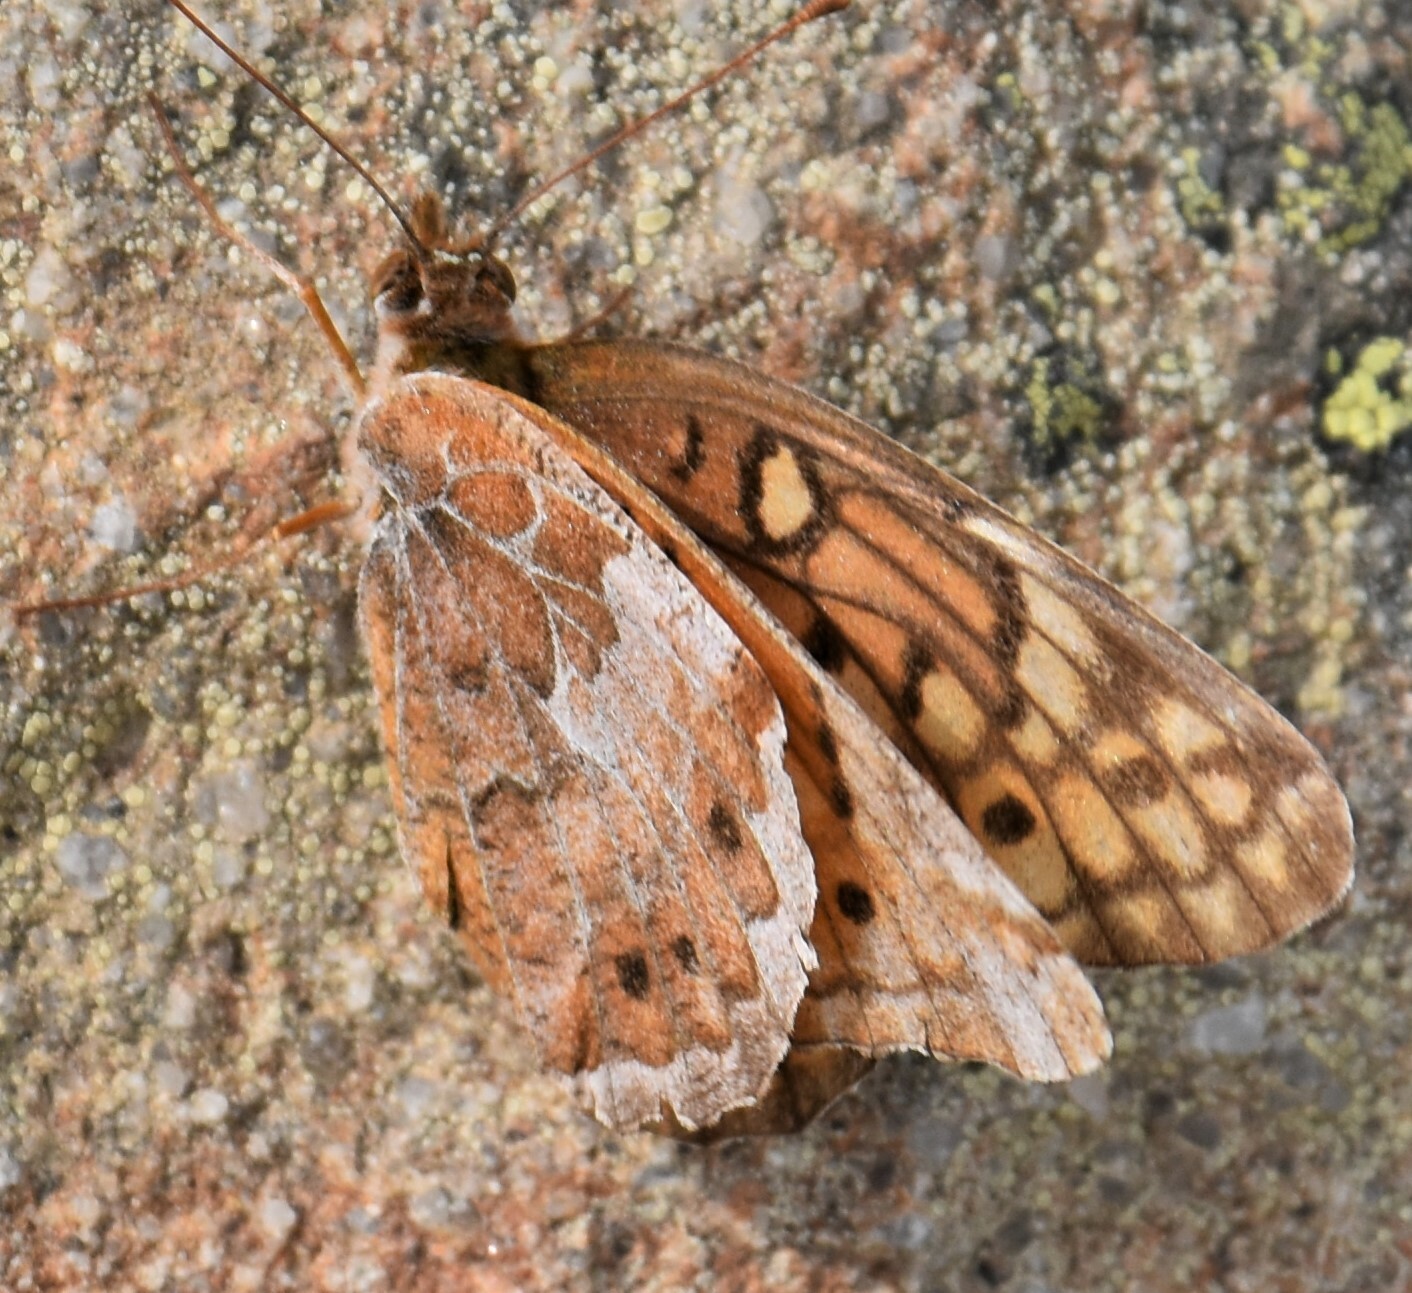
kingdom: Animalia
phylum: Arthropoda
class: Insecta
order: Lepidoptera
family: Nymphalidae
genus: Euptoieta
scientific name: Euptoieta claudia
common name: Variegated fritillary
